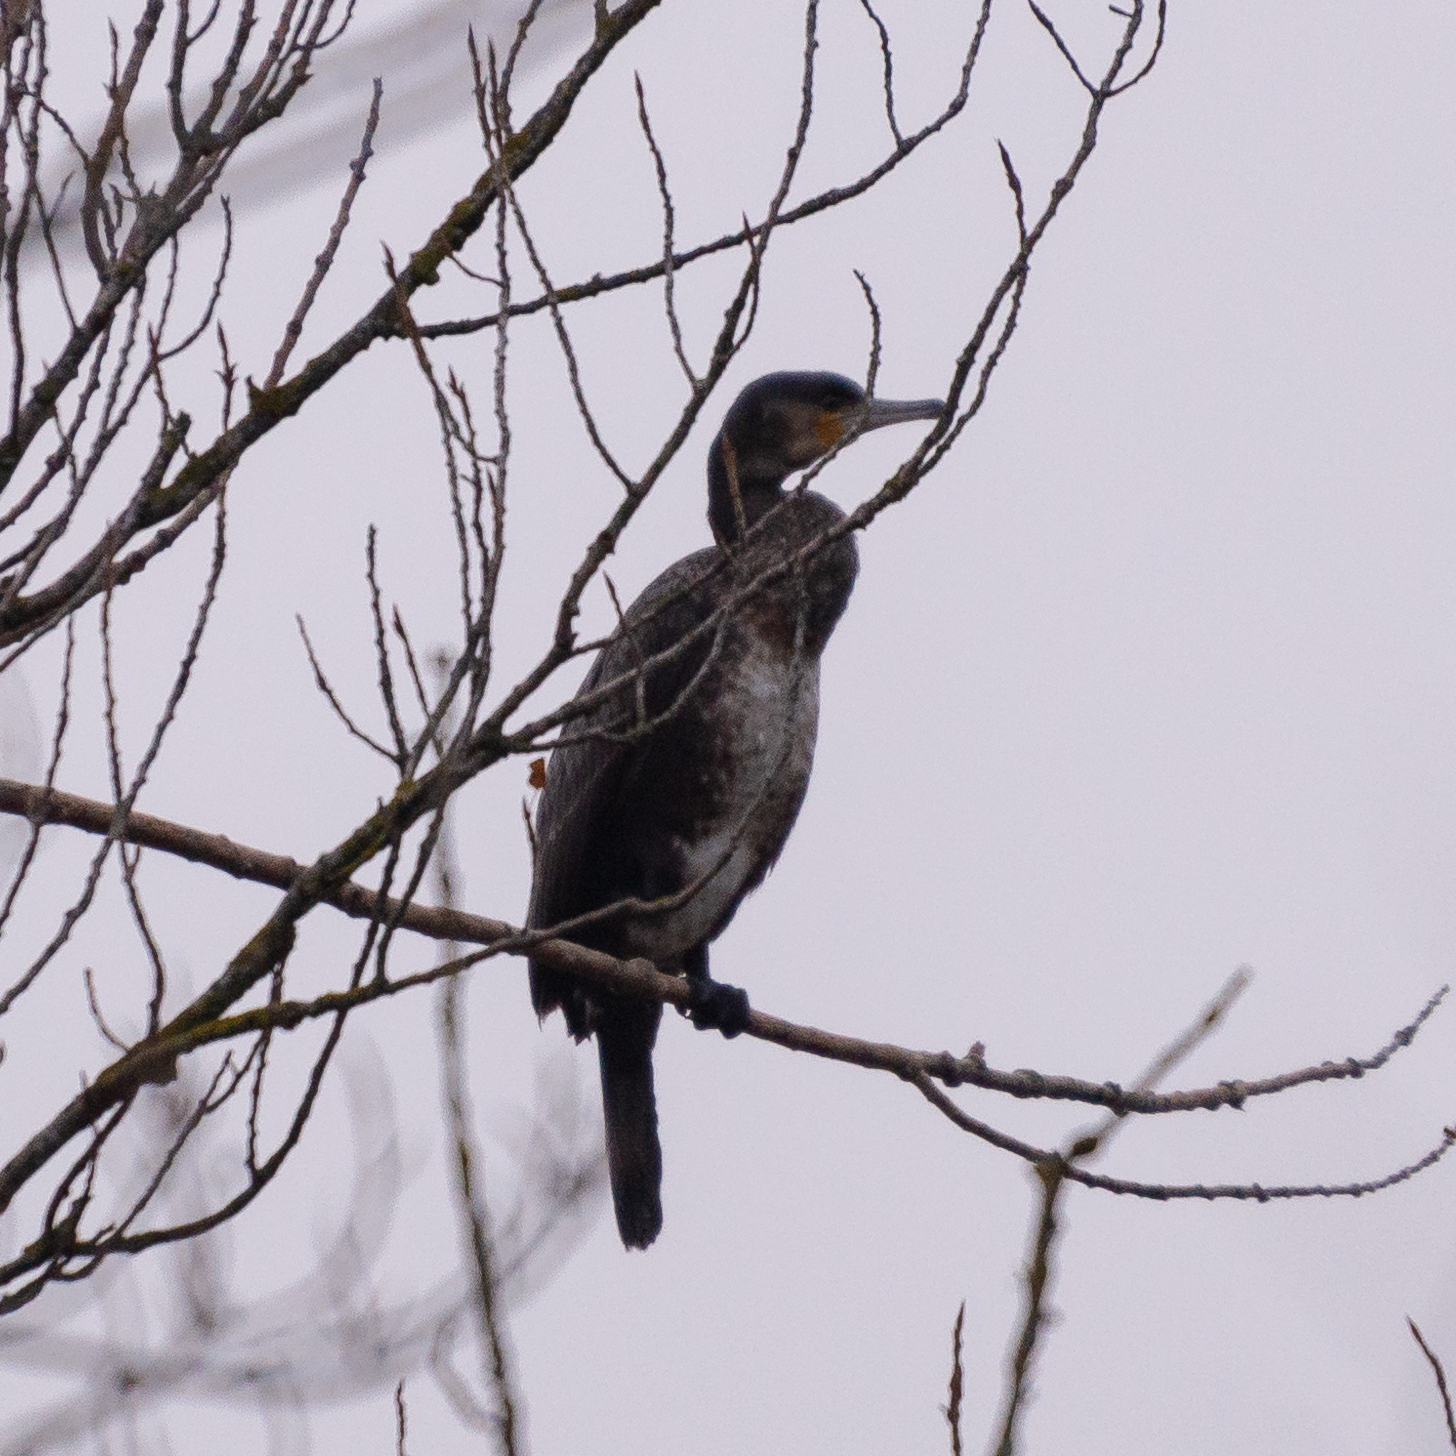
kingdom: Animalia
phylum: Chordata
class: Aves
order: Suliformes
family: Phalacrocoracidae
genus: Phalacrocorax
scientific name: Phalacrocorax carbo
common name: Great cormorant
